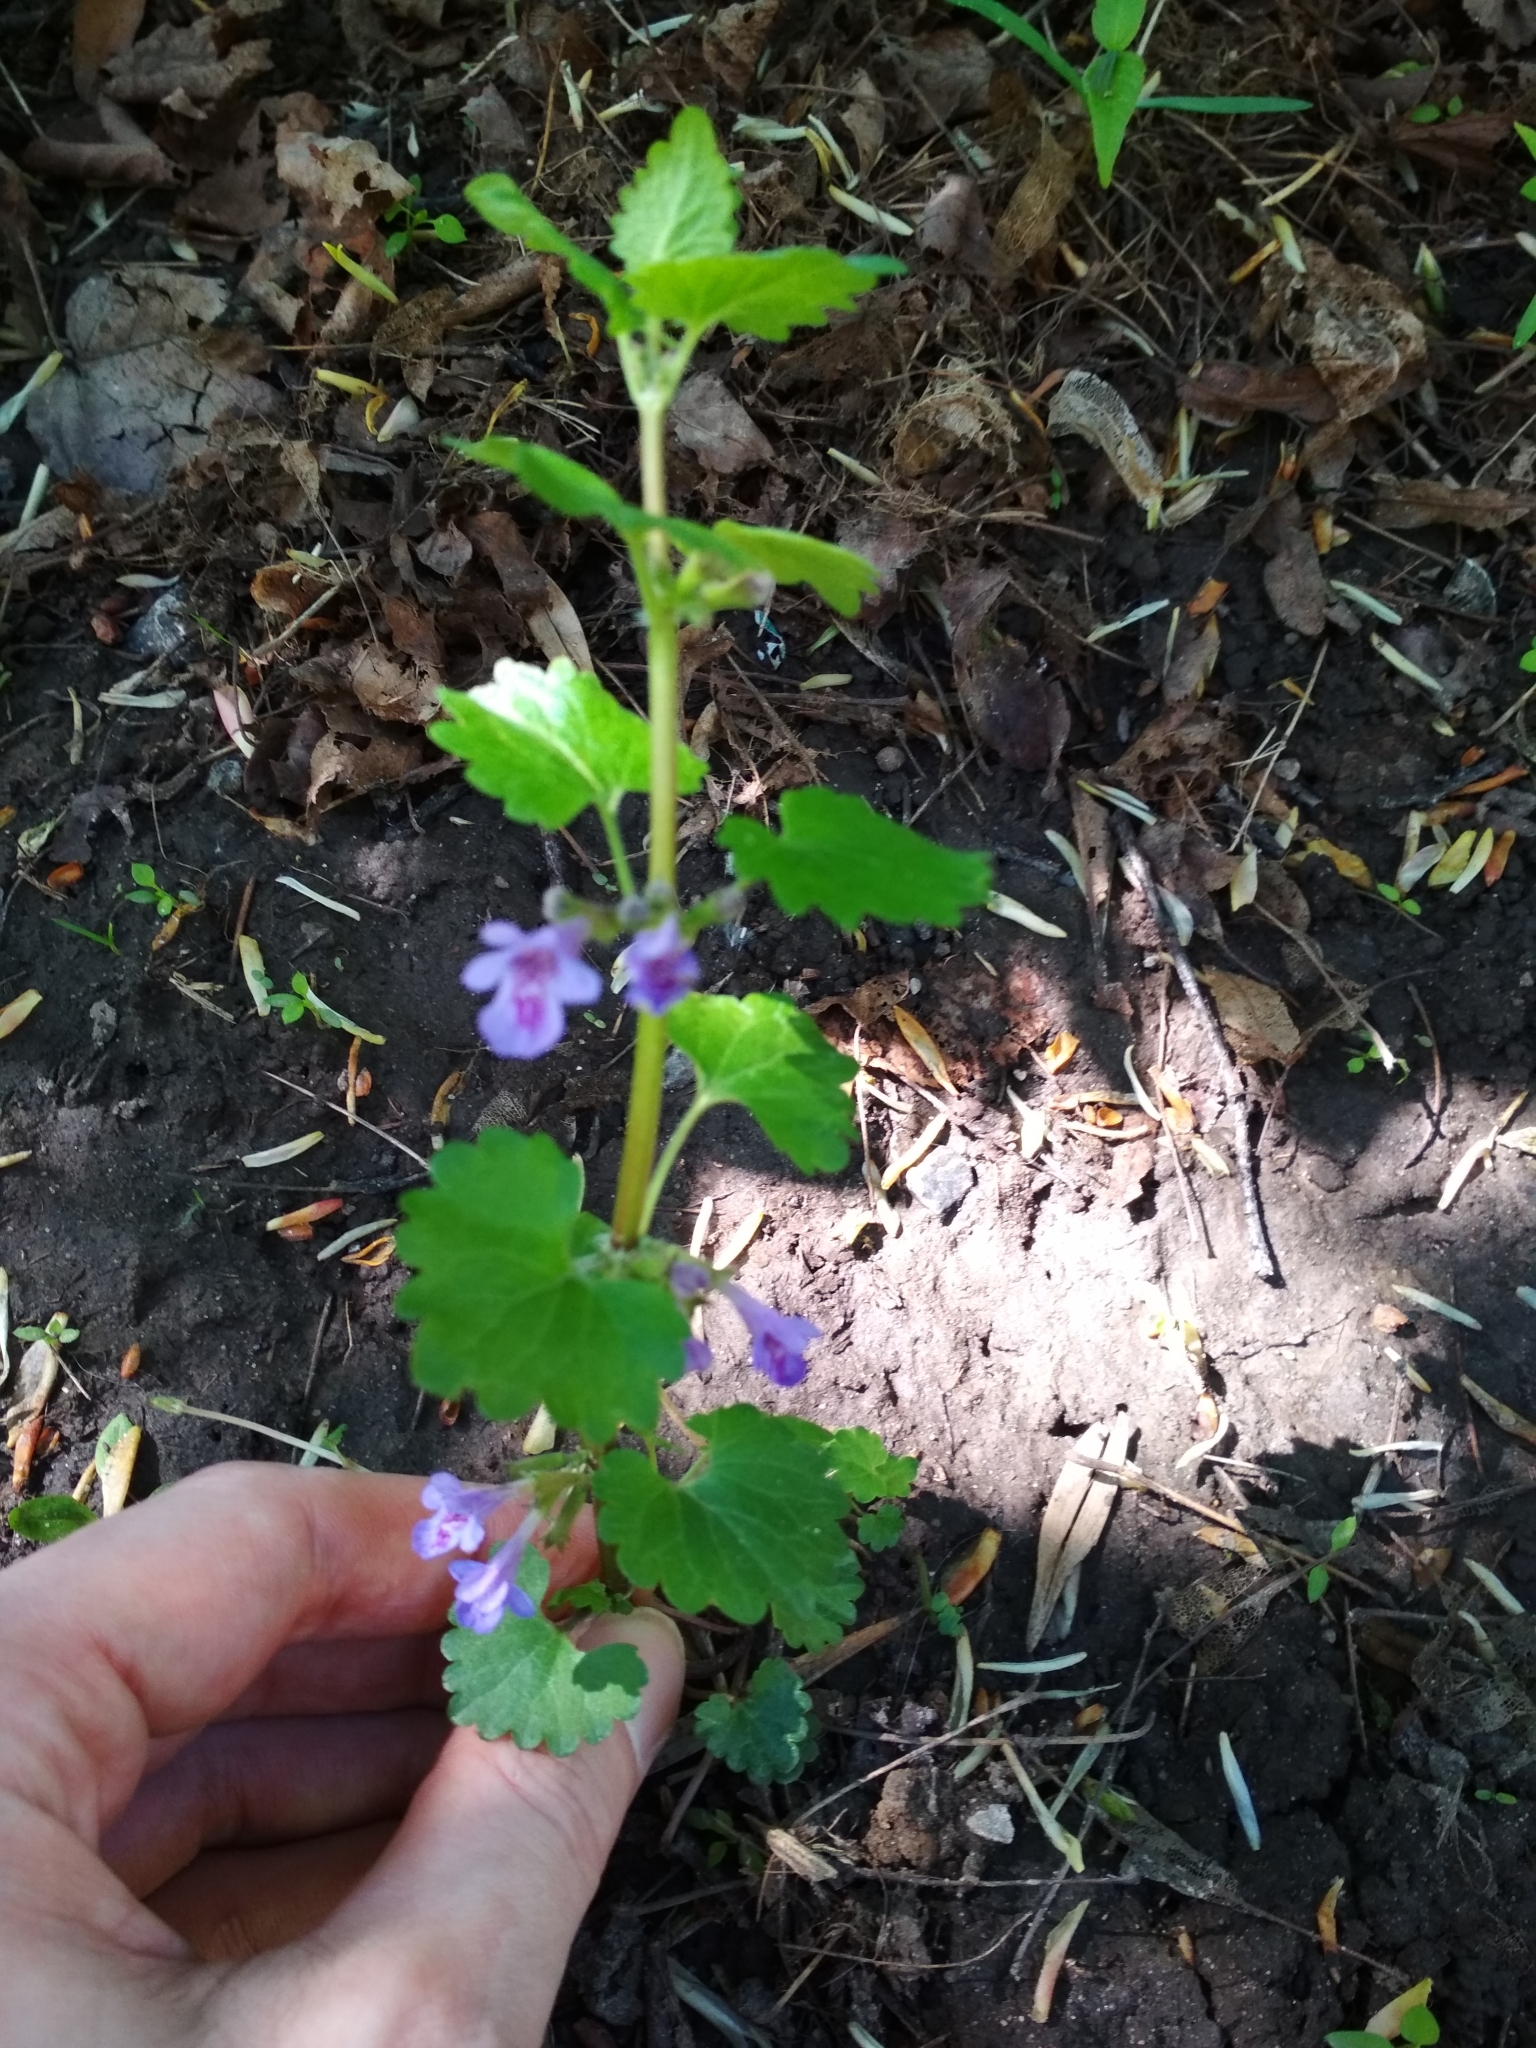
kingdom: Plantae
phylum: Tracheophyta
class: Magnoliopsida
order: Lamiales
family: Lamiaceae
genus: Glechoma
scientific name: Glechoma hederacea
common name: Ground ivy
